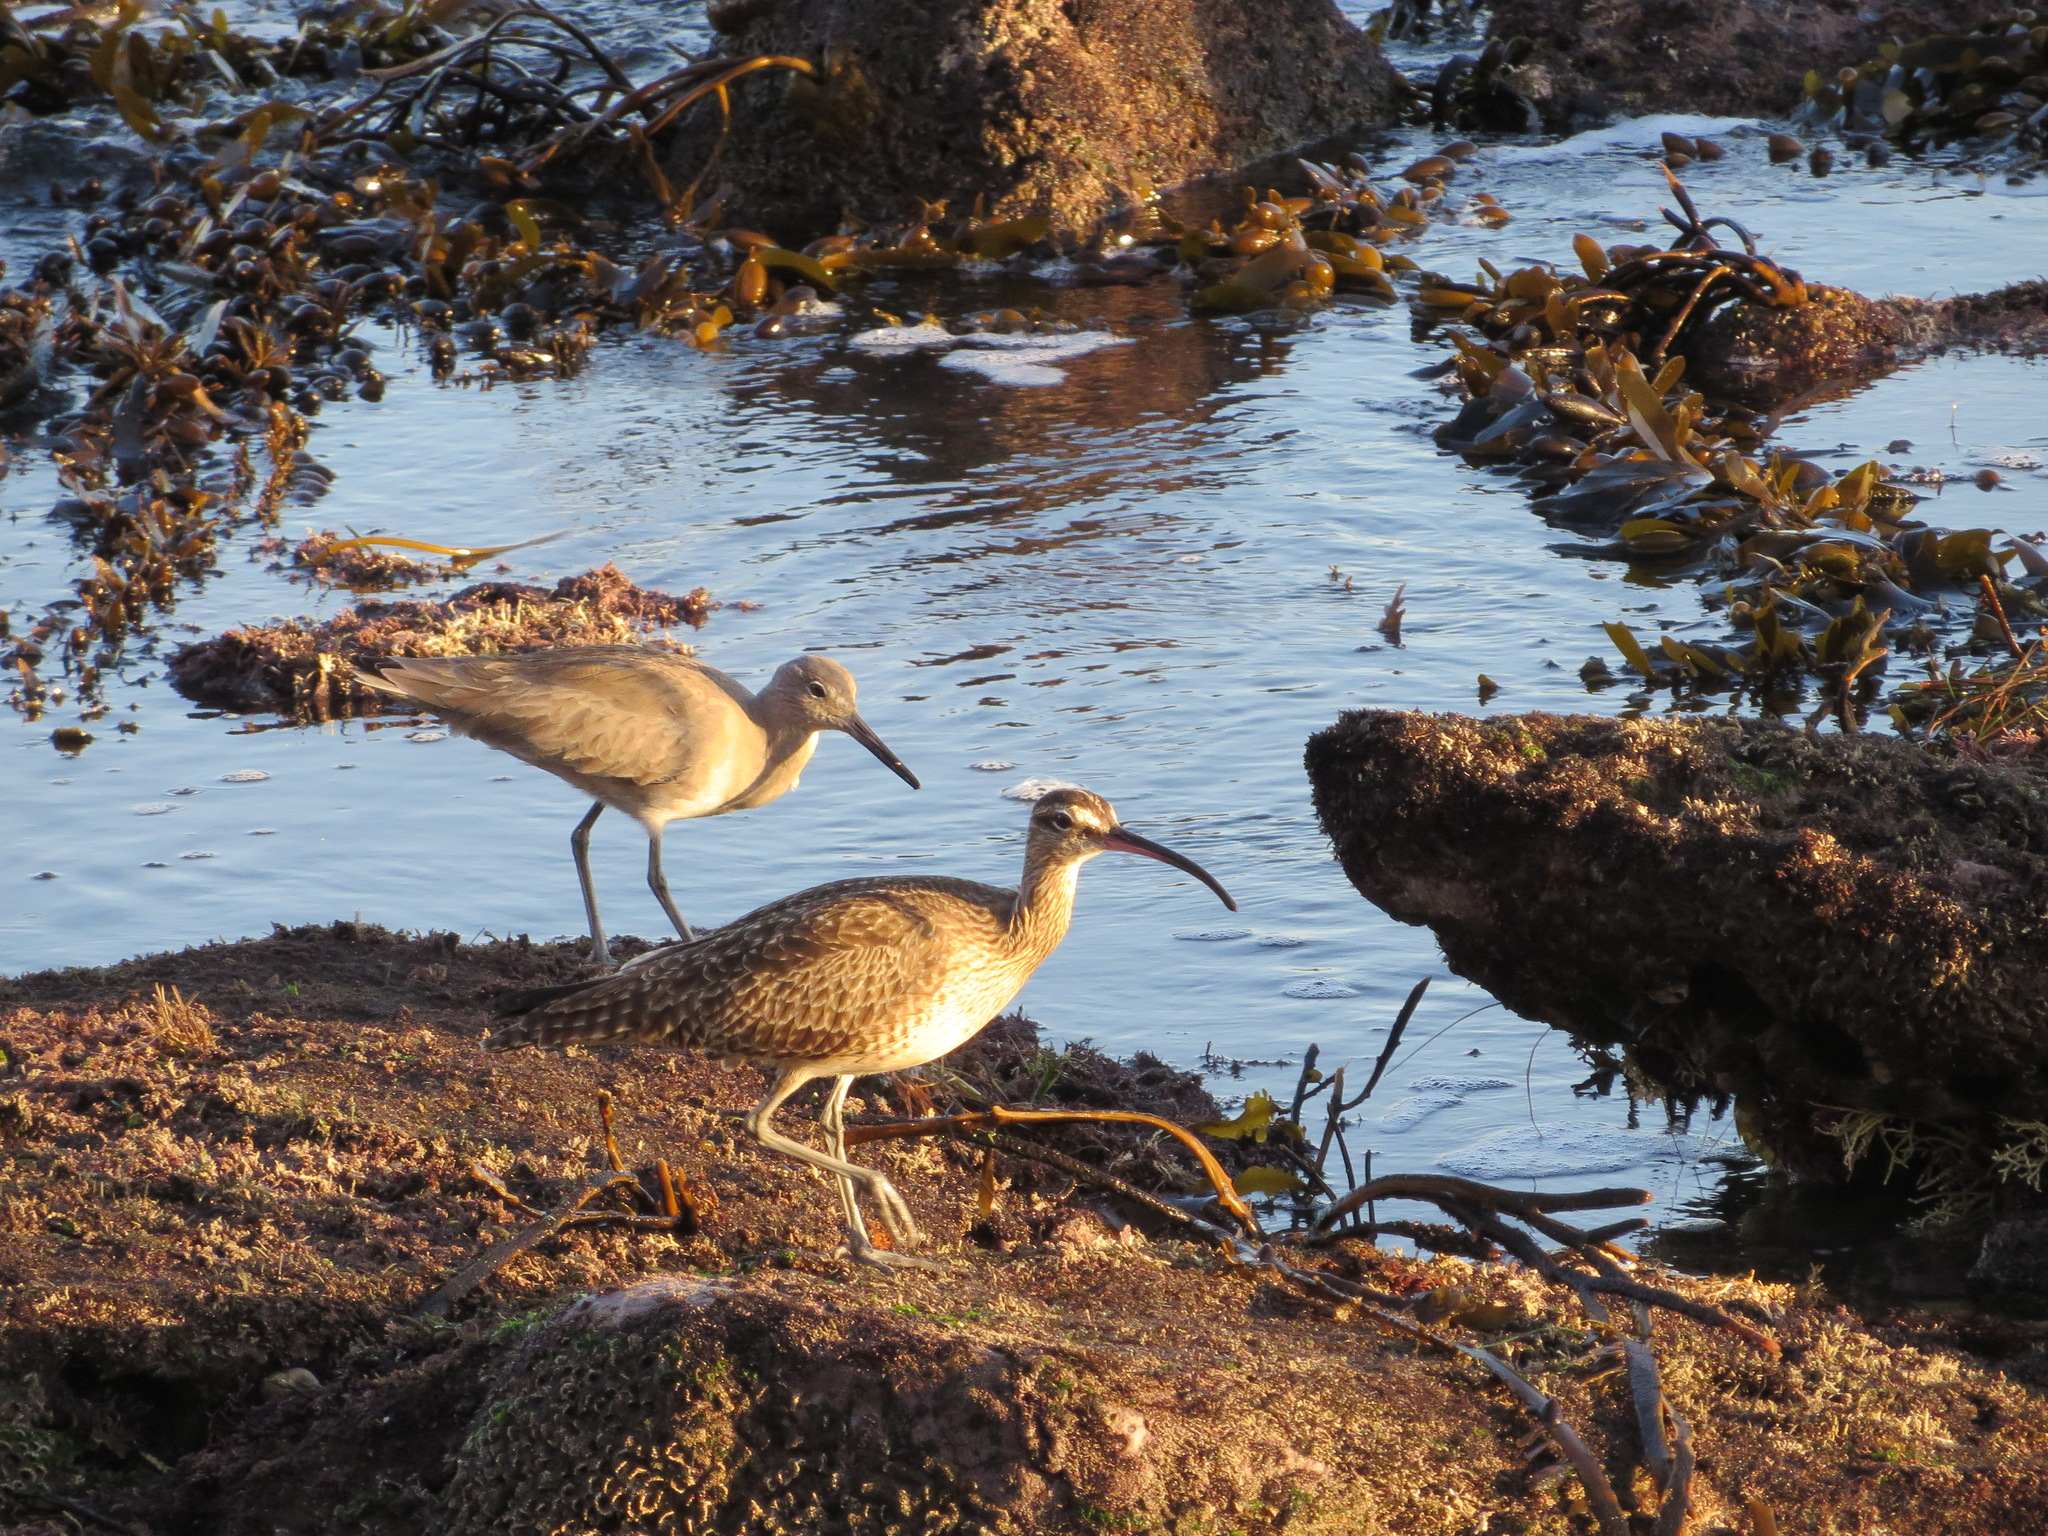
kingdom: Animalia
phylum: Chordata
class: Aves
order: Charadriiformes
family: Scolopacidae
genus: Numenius
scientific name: Numenius phaeopus
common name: Whimbrel
